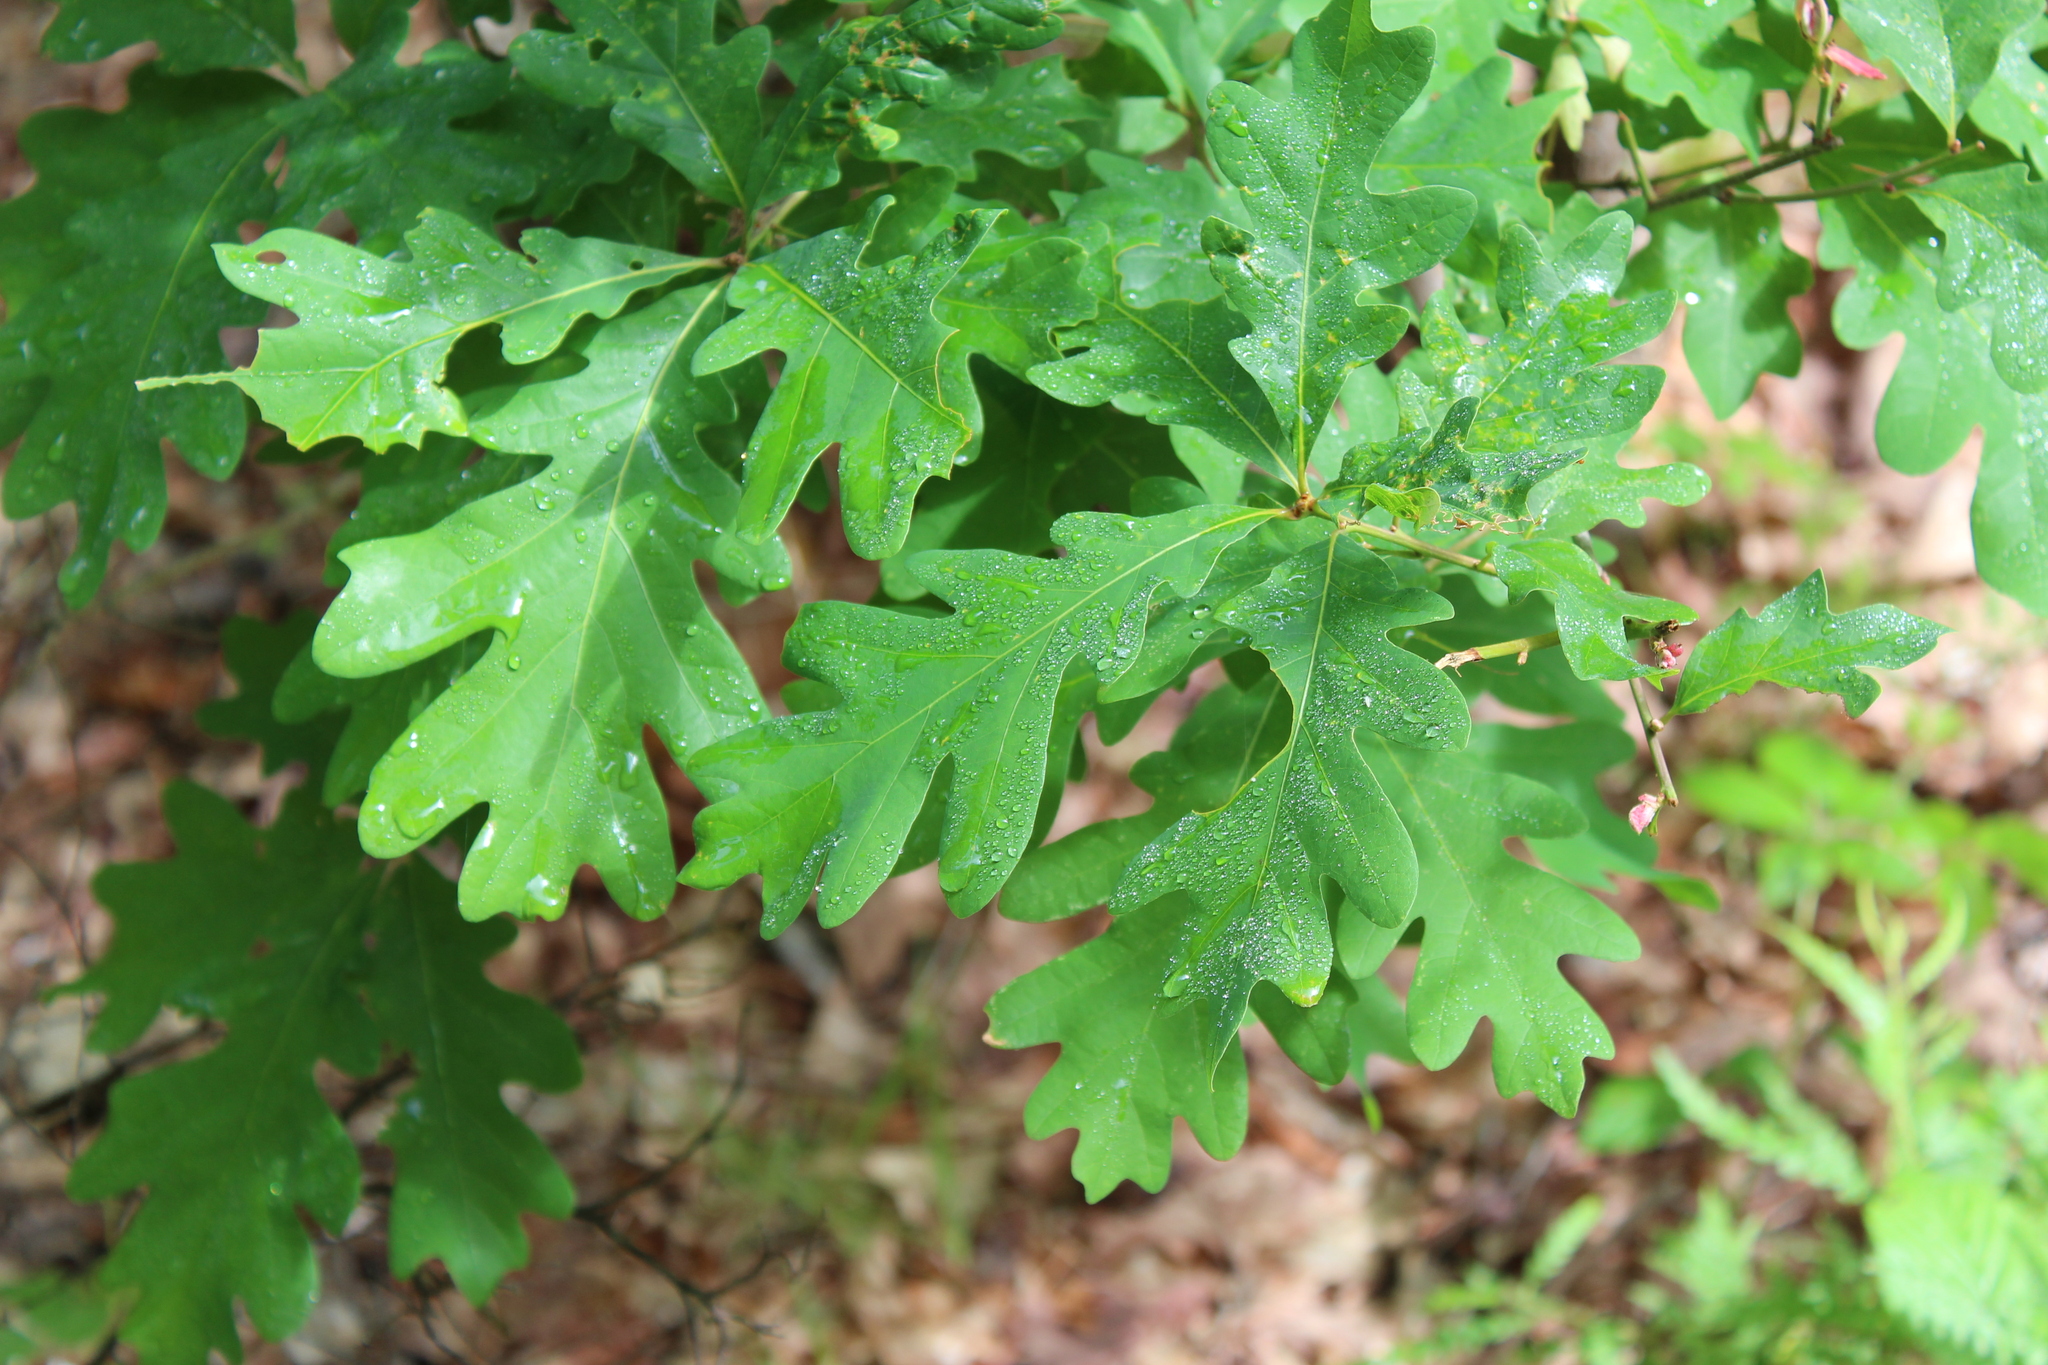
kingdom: Plantae
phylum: Tracheophyta
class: Magnoliopsida
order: Fagales
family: Fagaceae
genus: Quercus
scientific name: Quercus alba
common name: White oak
